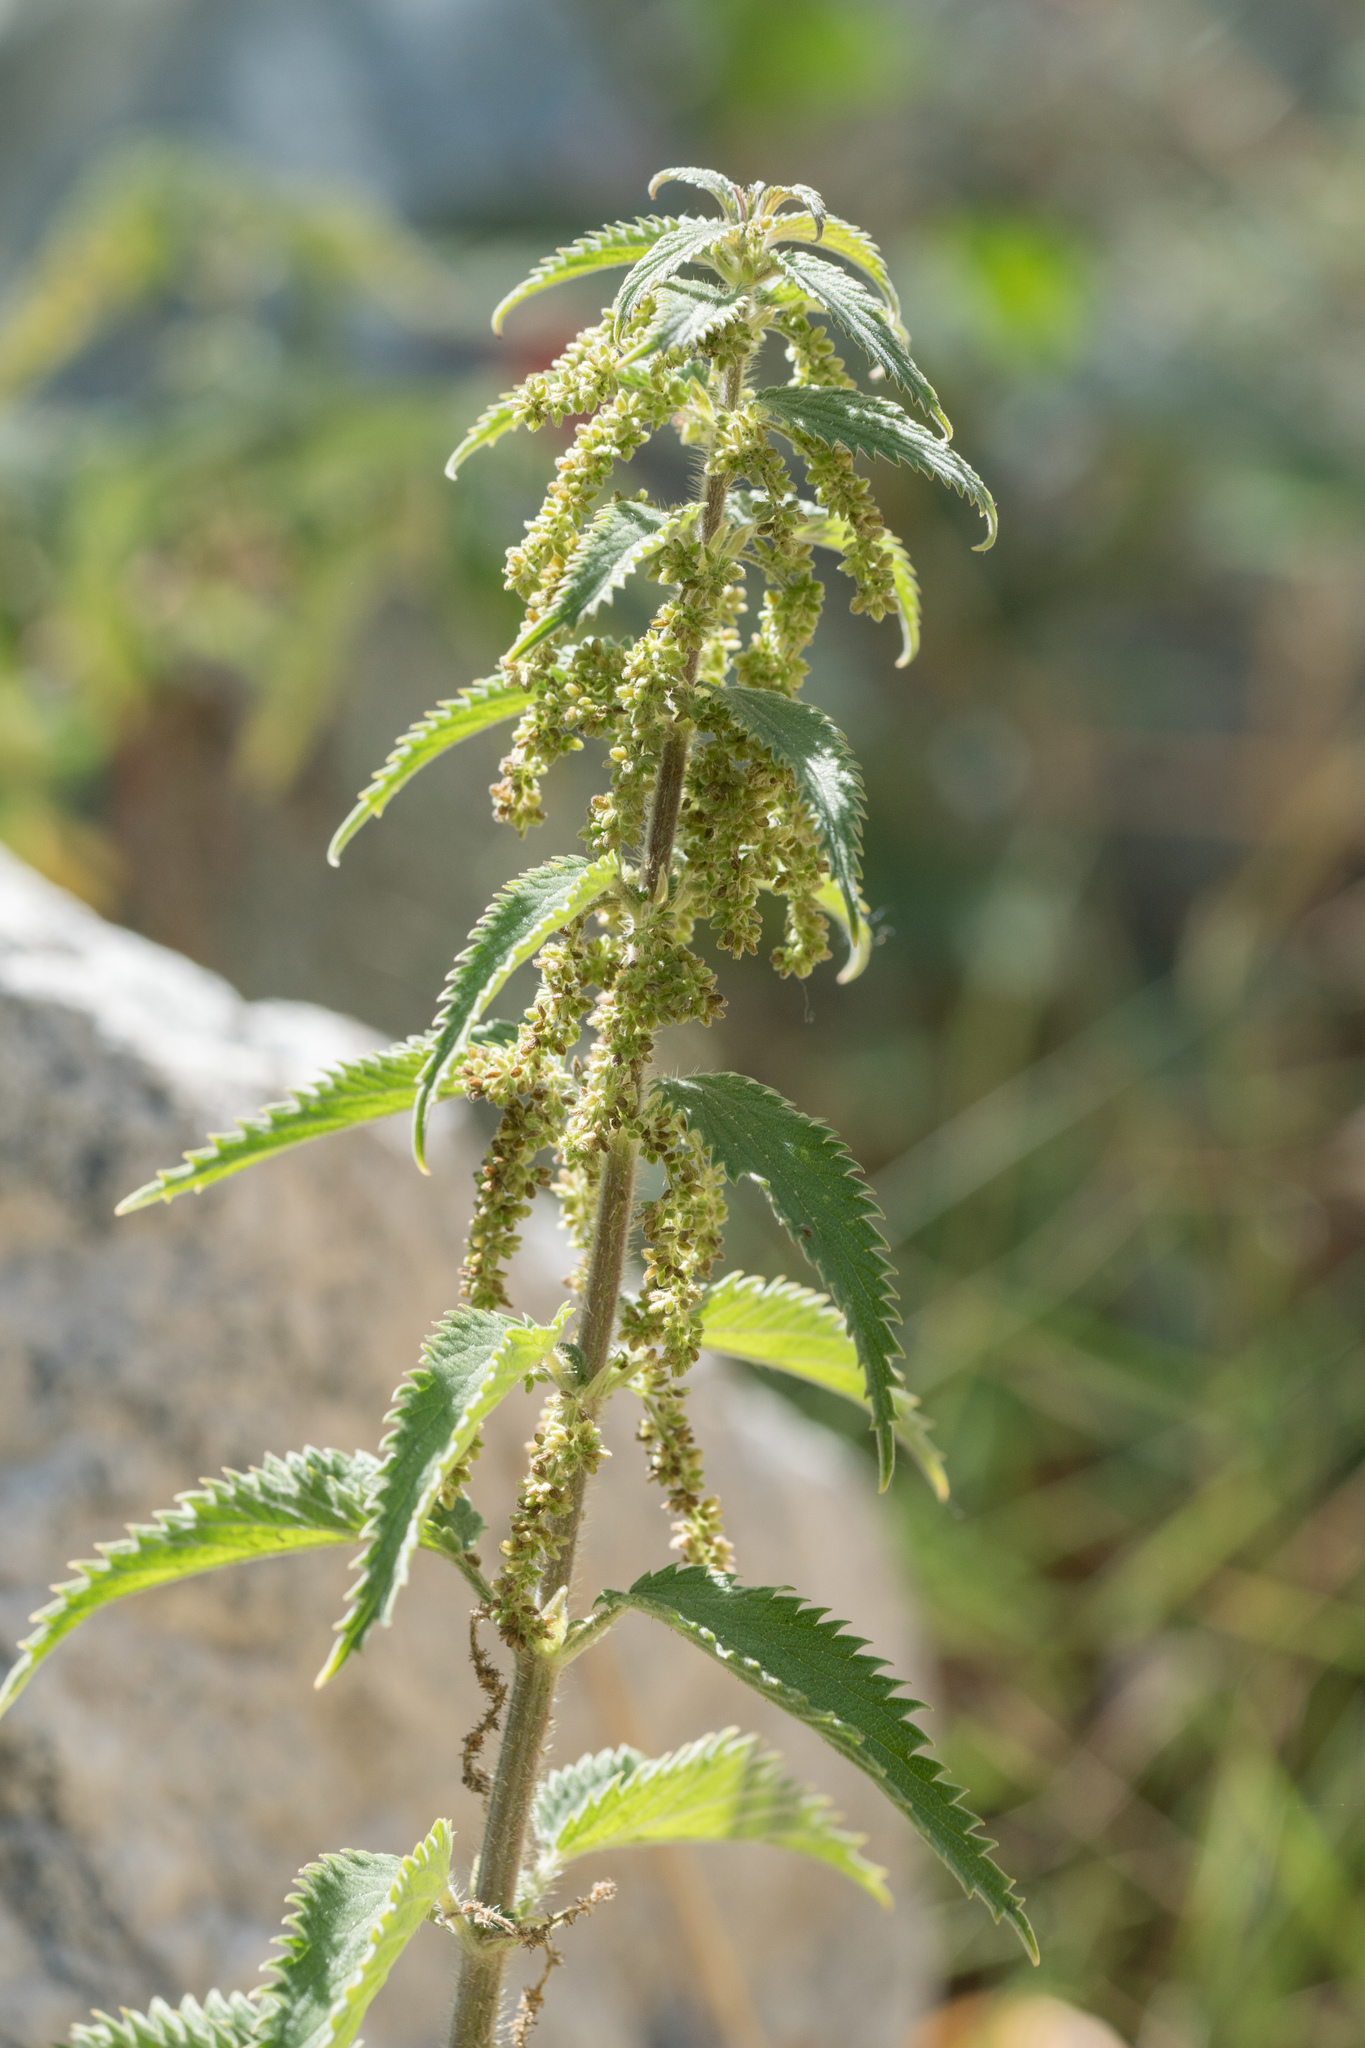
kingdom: Plantae
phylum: Tracheophyta
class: Magnoliopsida
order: Rosales
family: Urticaceae
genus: Urtica
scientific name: Urtica dioica
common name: Common nettle
